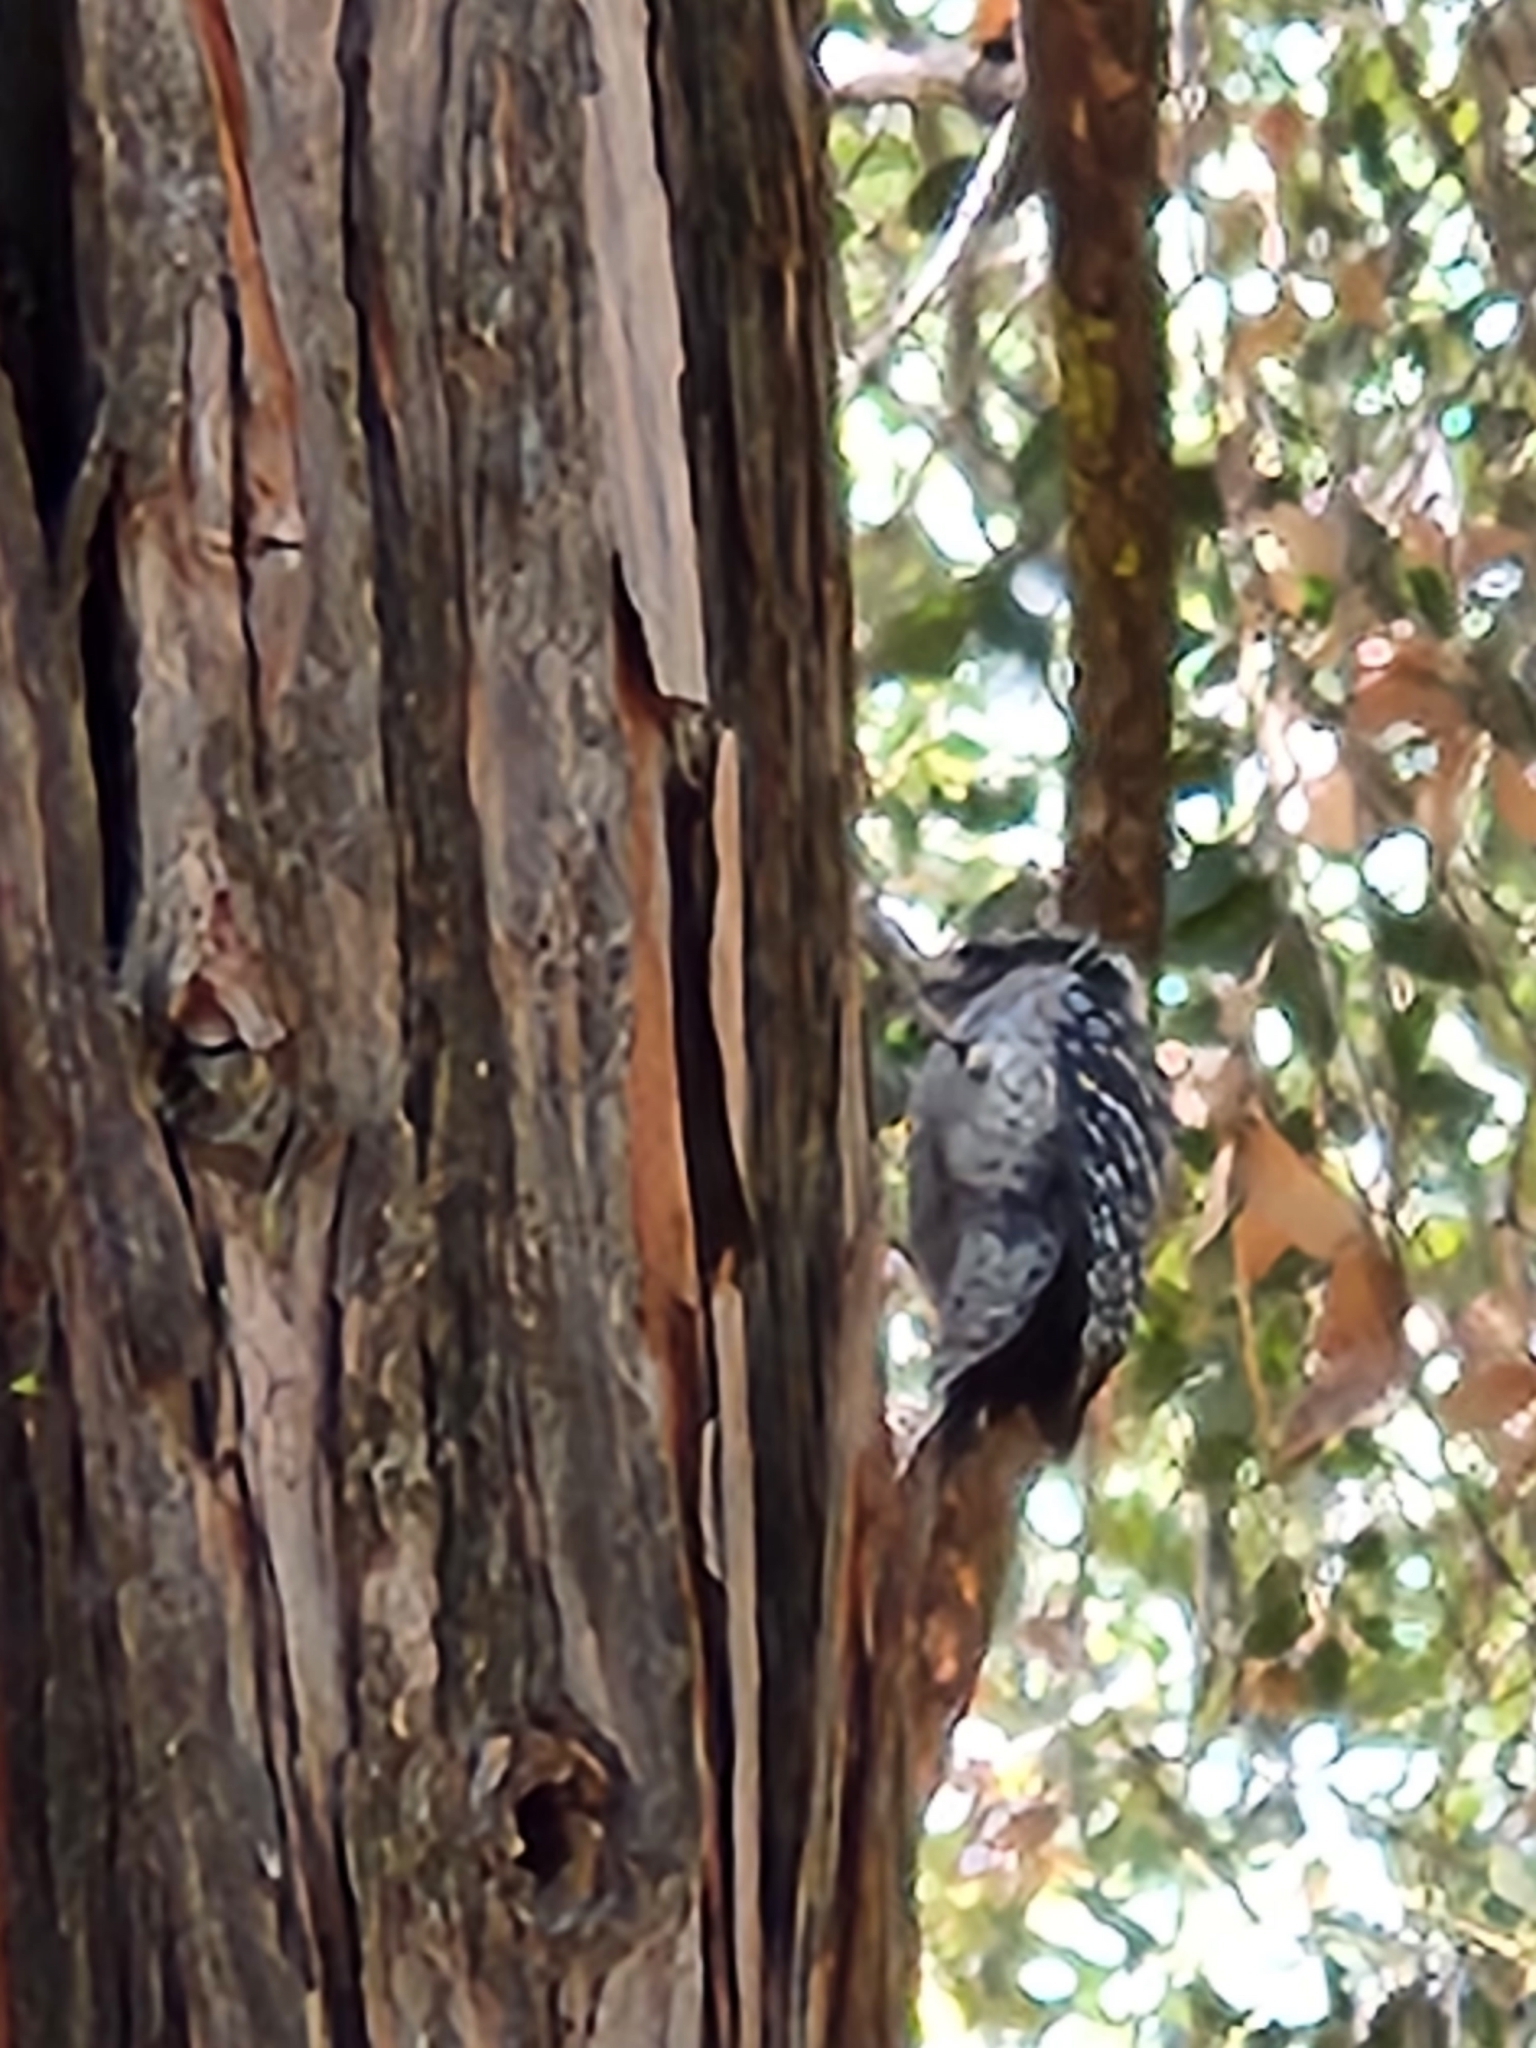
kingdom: Animalia
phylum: Chordata
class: Aves
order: Piciformes
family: Picidae
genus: Dryobates
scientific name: Dryobates nuttallii
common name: Nuttall's woodpecker
